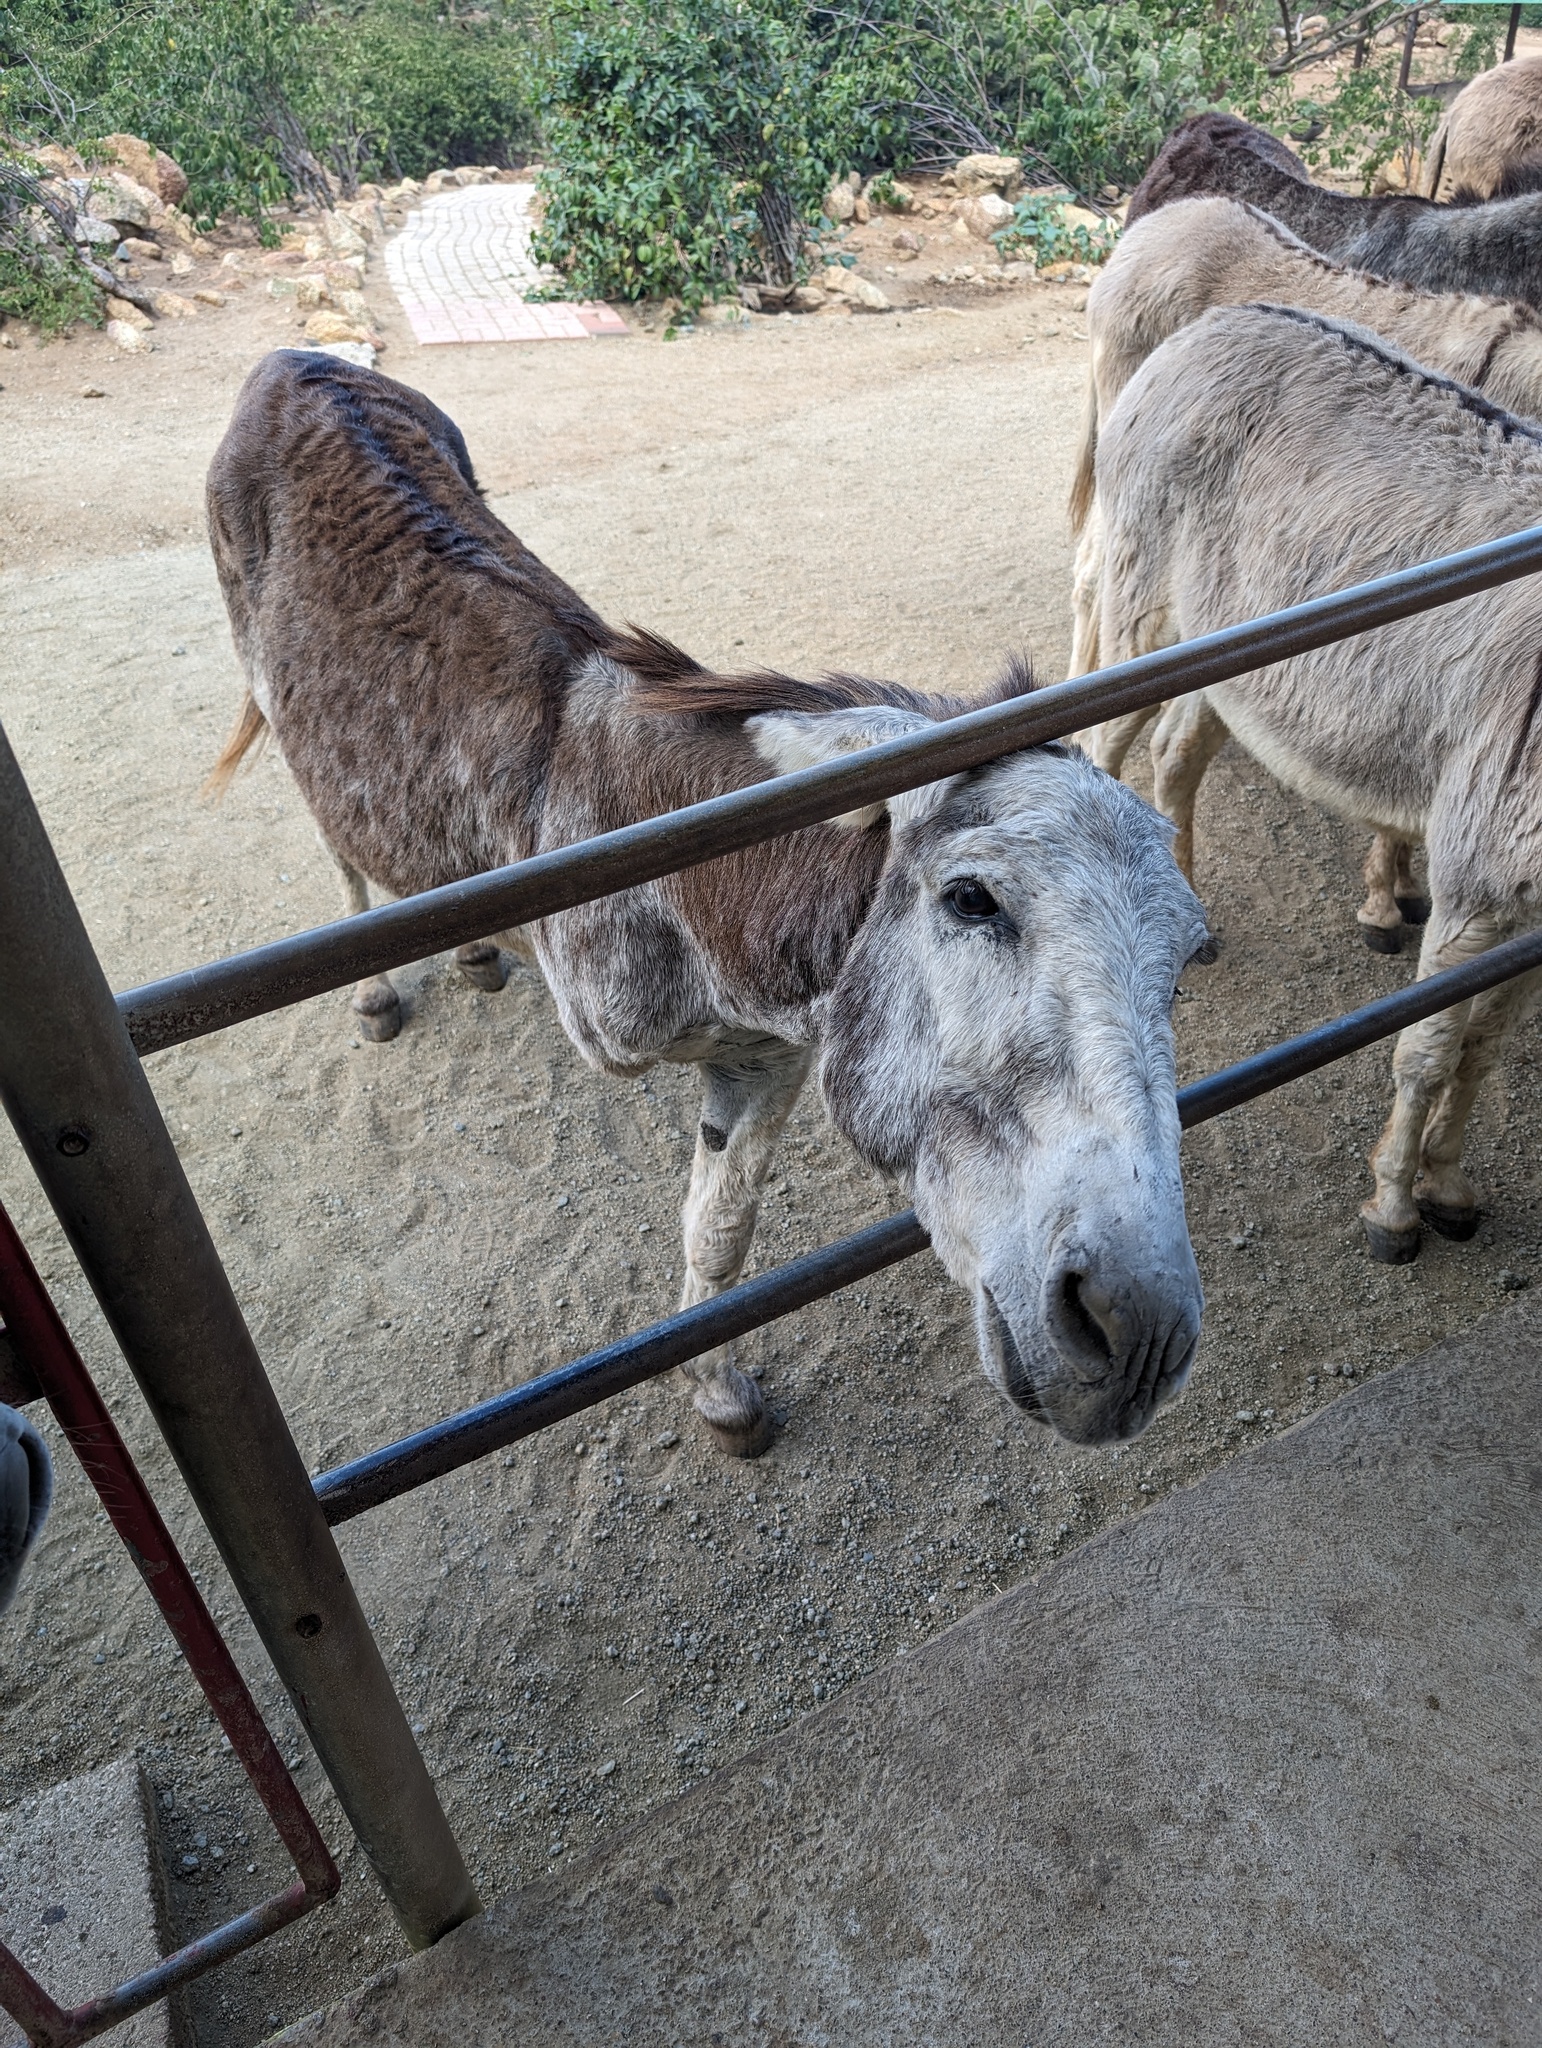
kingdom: Animalia
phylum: Chordata
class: Mammalia
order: Perissodactyla
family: Equidae
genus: Equus
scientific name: Equus asinus
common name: Ass
